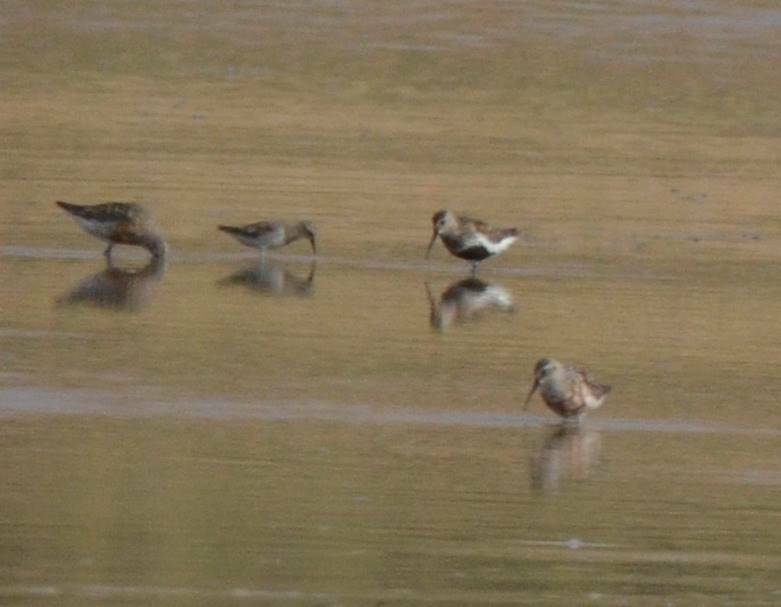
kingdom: Animalia
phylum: Chordata
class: Aves
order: Charadriiformes
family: Scolopacidae
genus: Calidris
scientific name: Calidris alpina
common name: Dunlin
